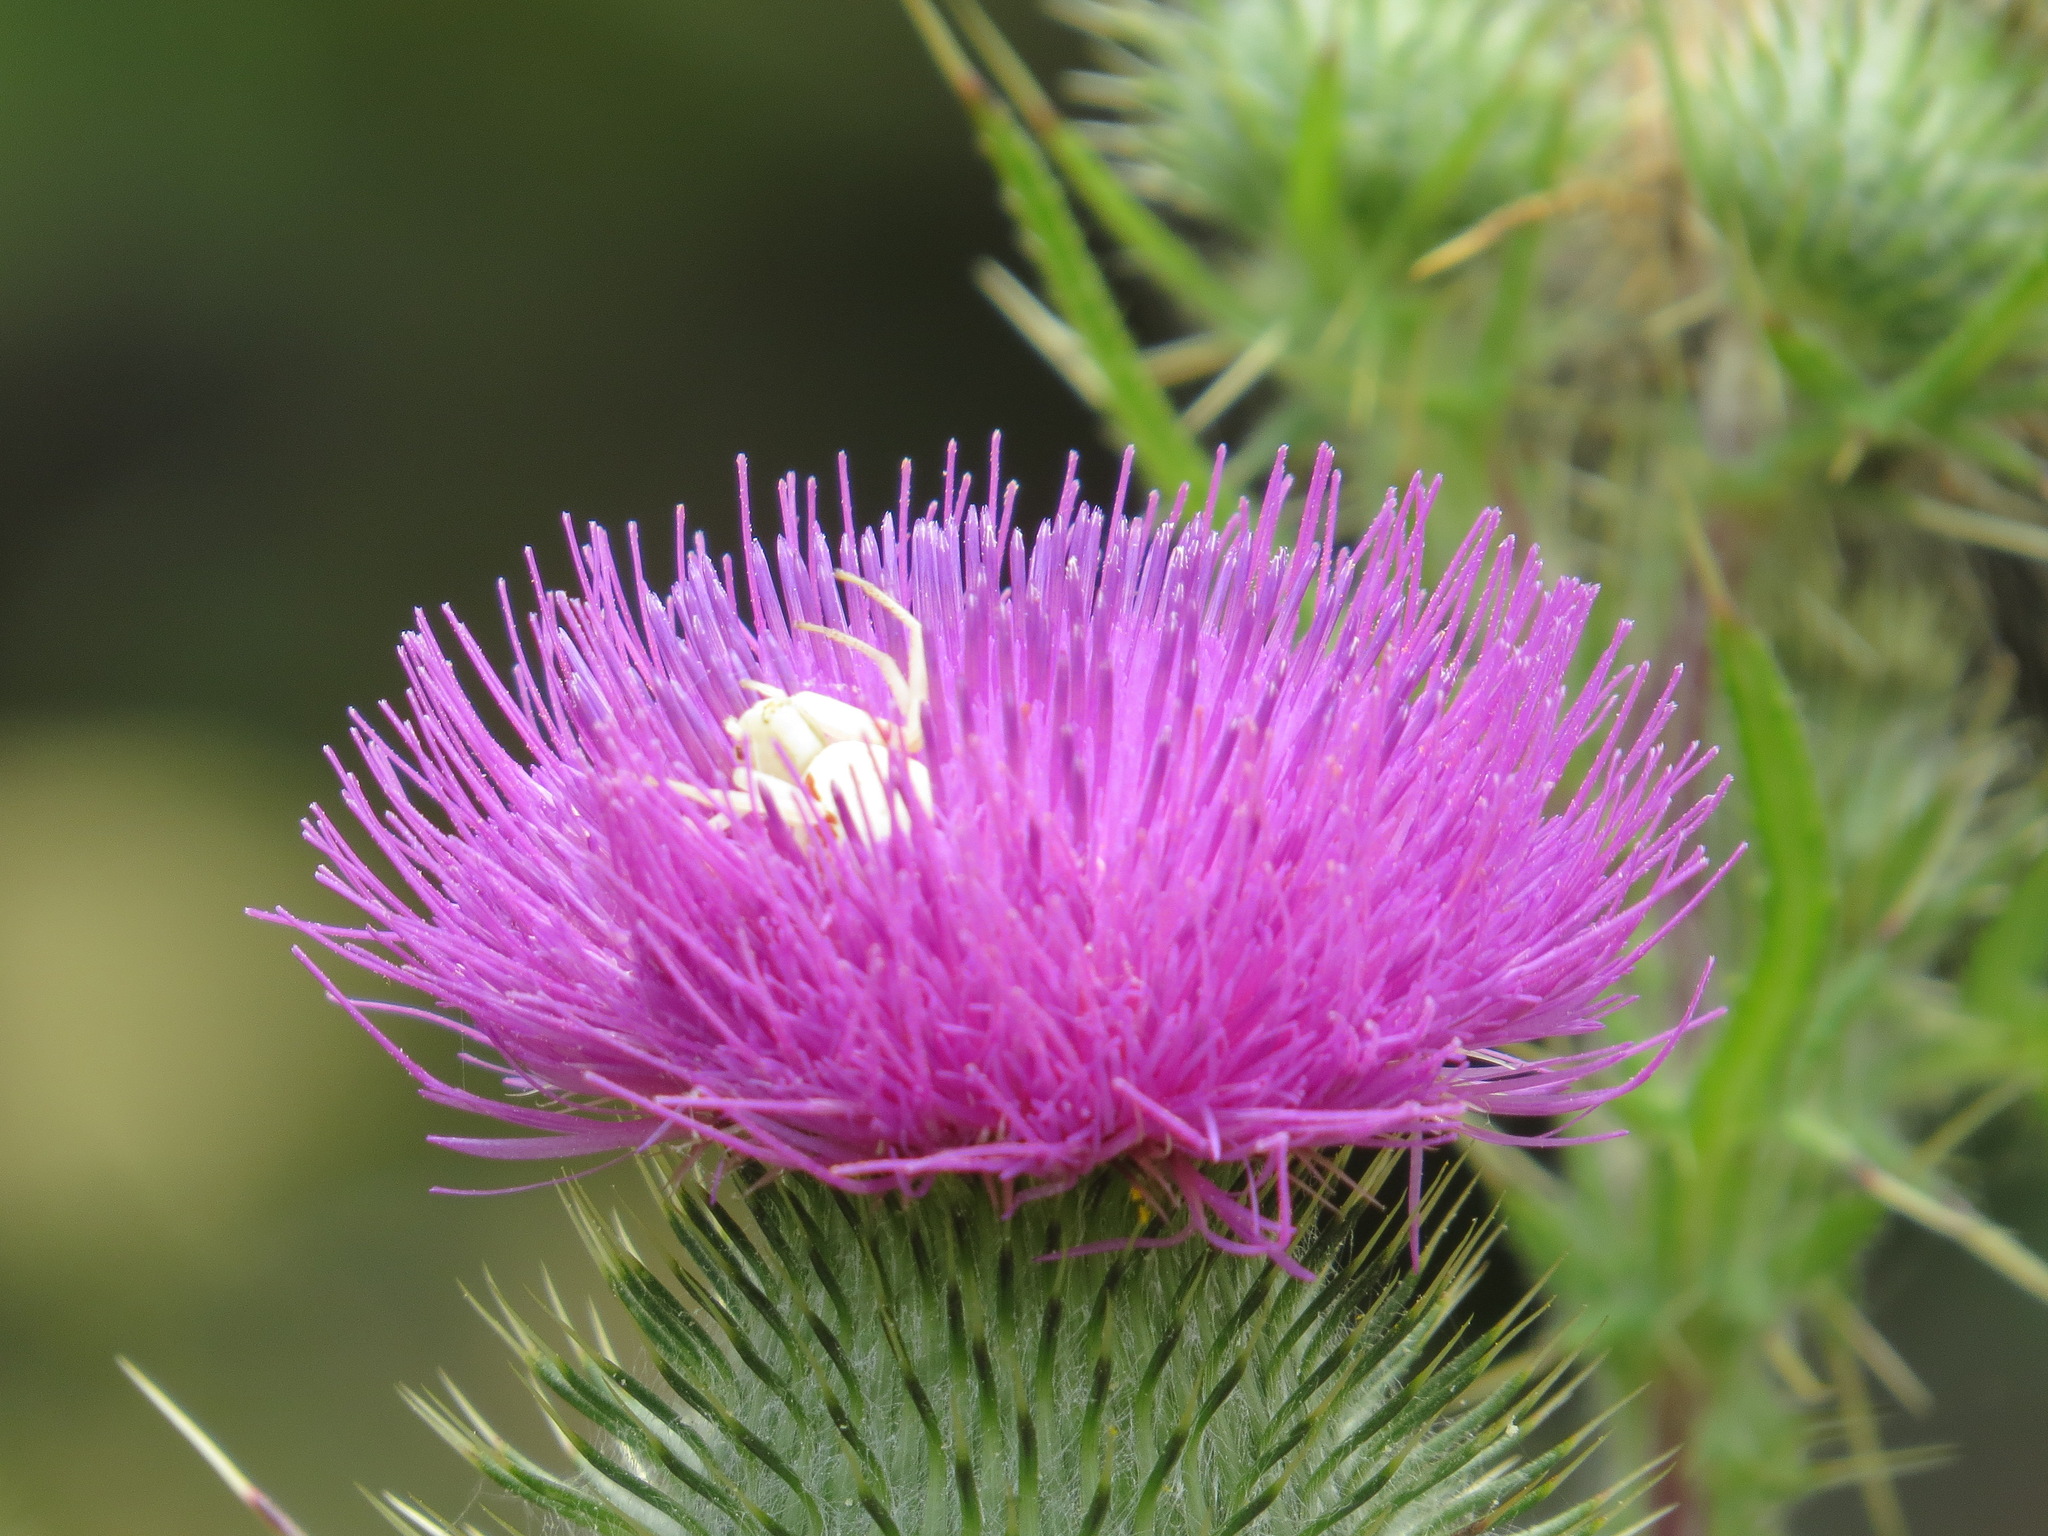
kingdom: Animalia
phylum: Arthropoda
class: Arachnida
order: Araneae
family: Thomisidae
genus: Misumena
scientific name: Misumena vatia
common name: Goldenrod crab spider
